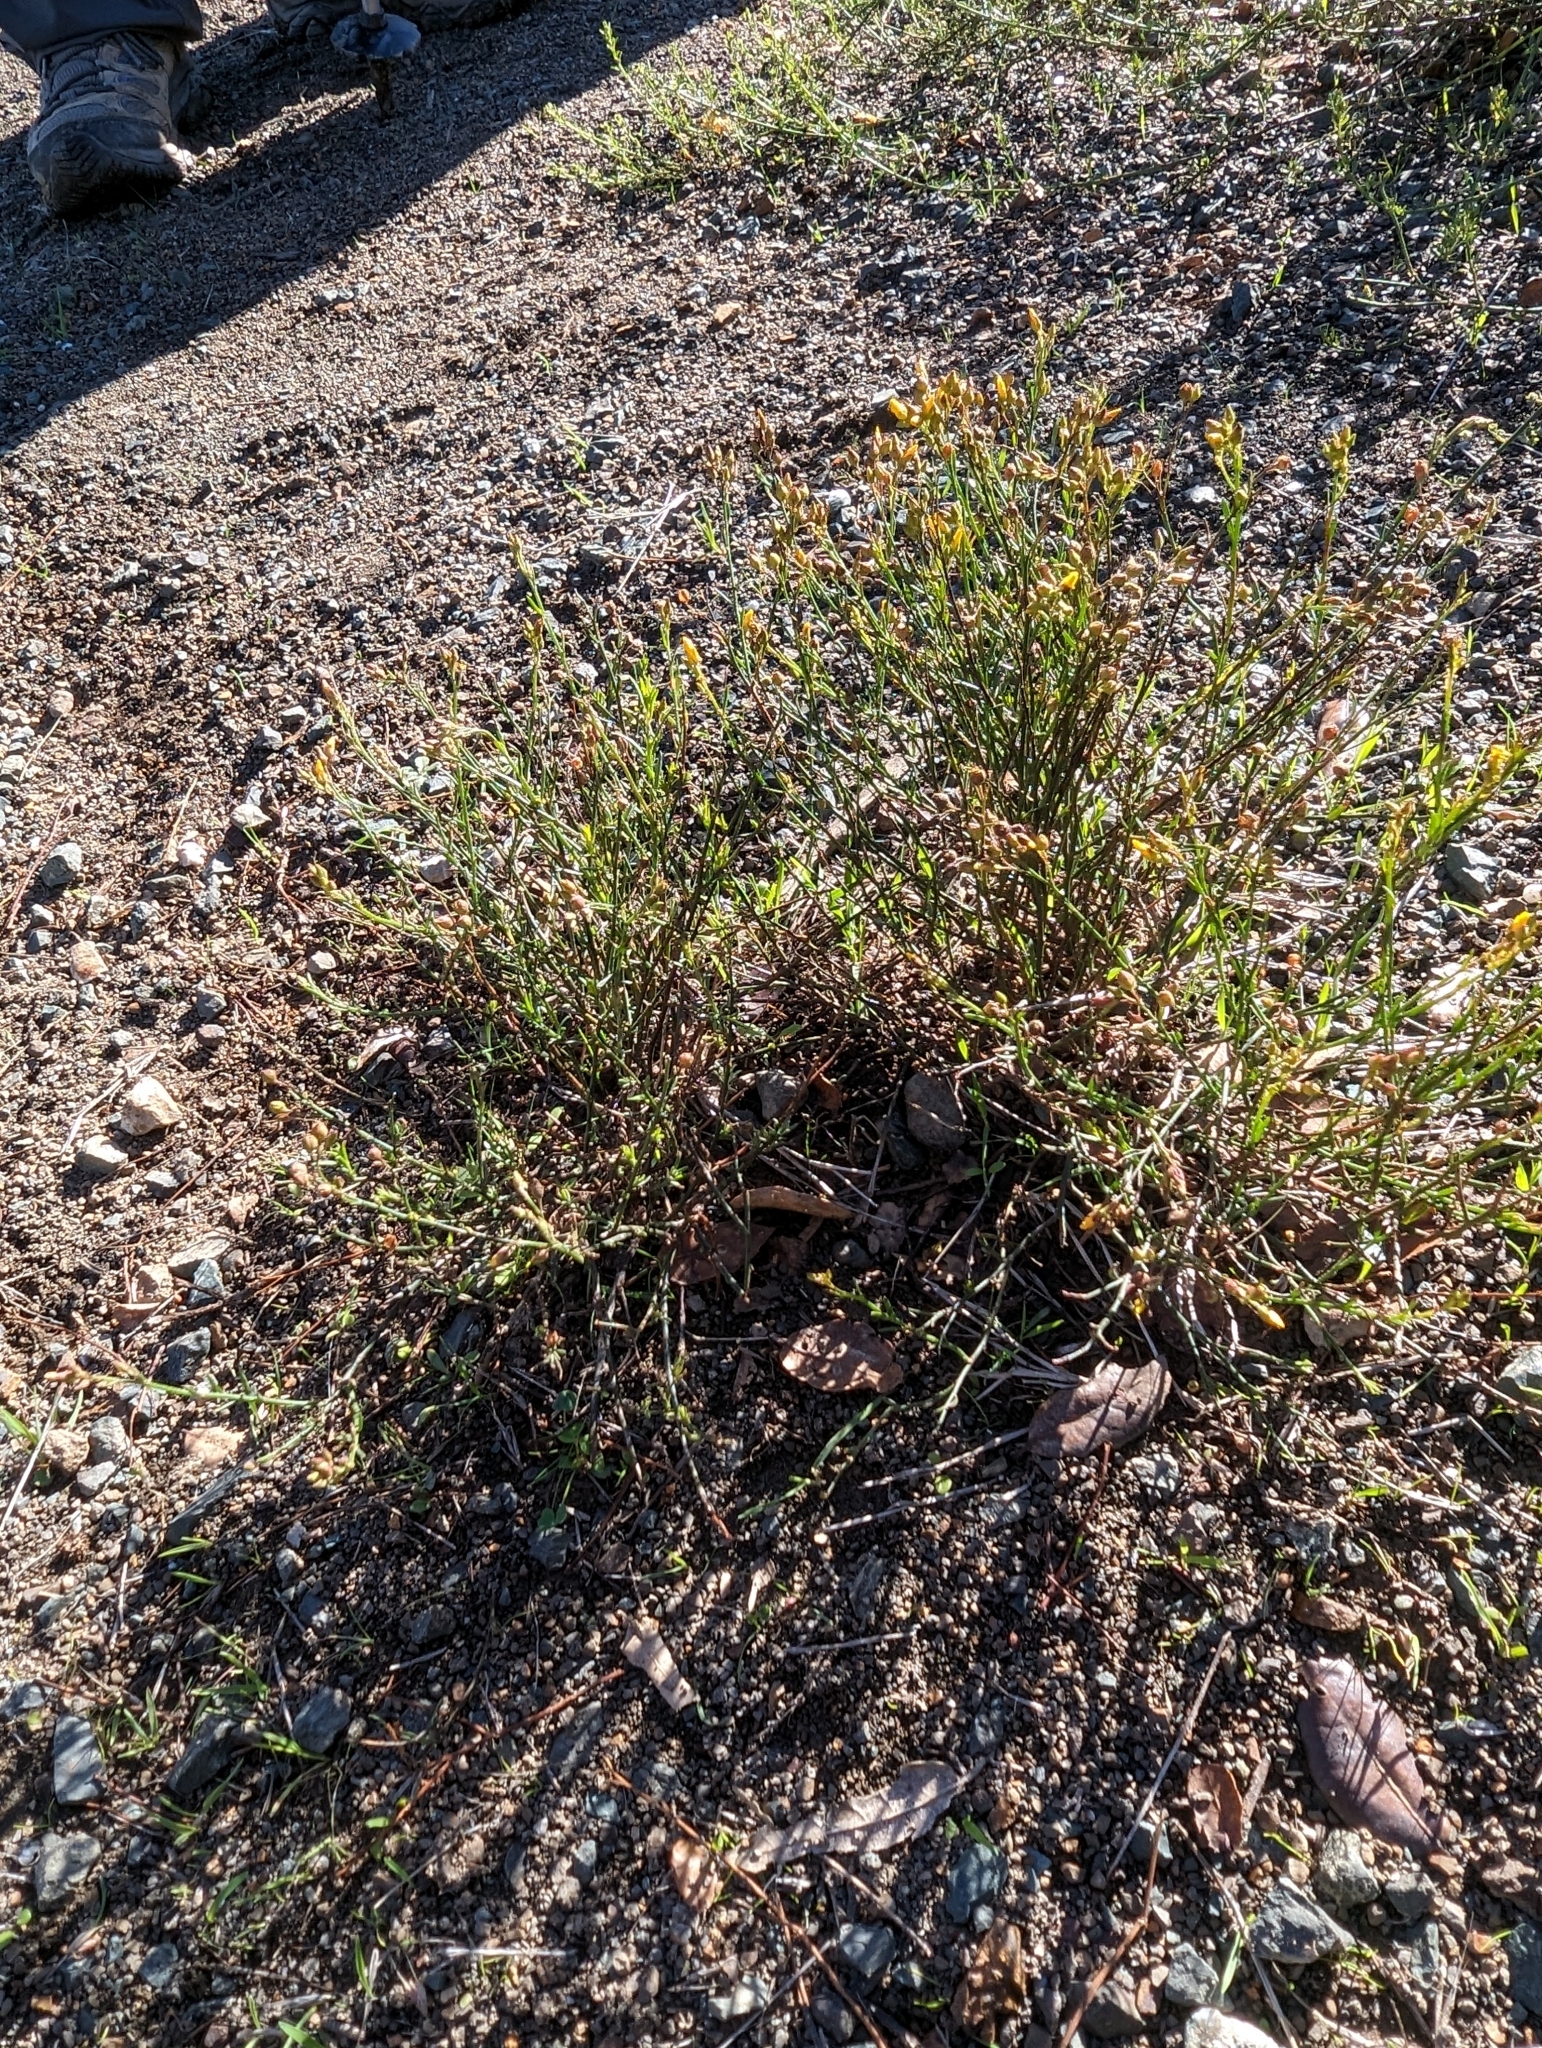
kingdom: Plantae
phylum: Tracheophyta
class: Magnoliopsida
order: Malvales
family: Cistaceae
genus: Crocanthemum
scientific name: Crocanthemum scoparium
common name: Broom-rose
